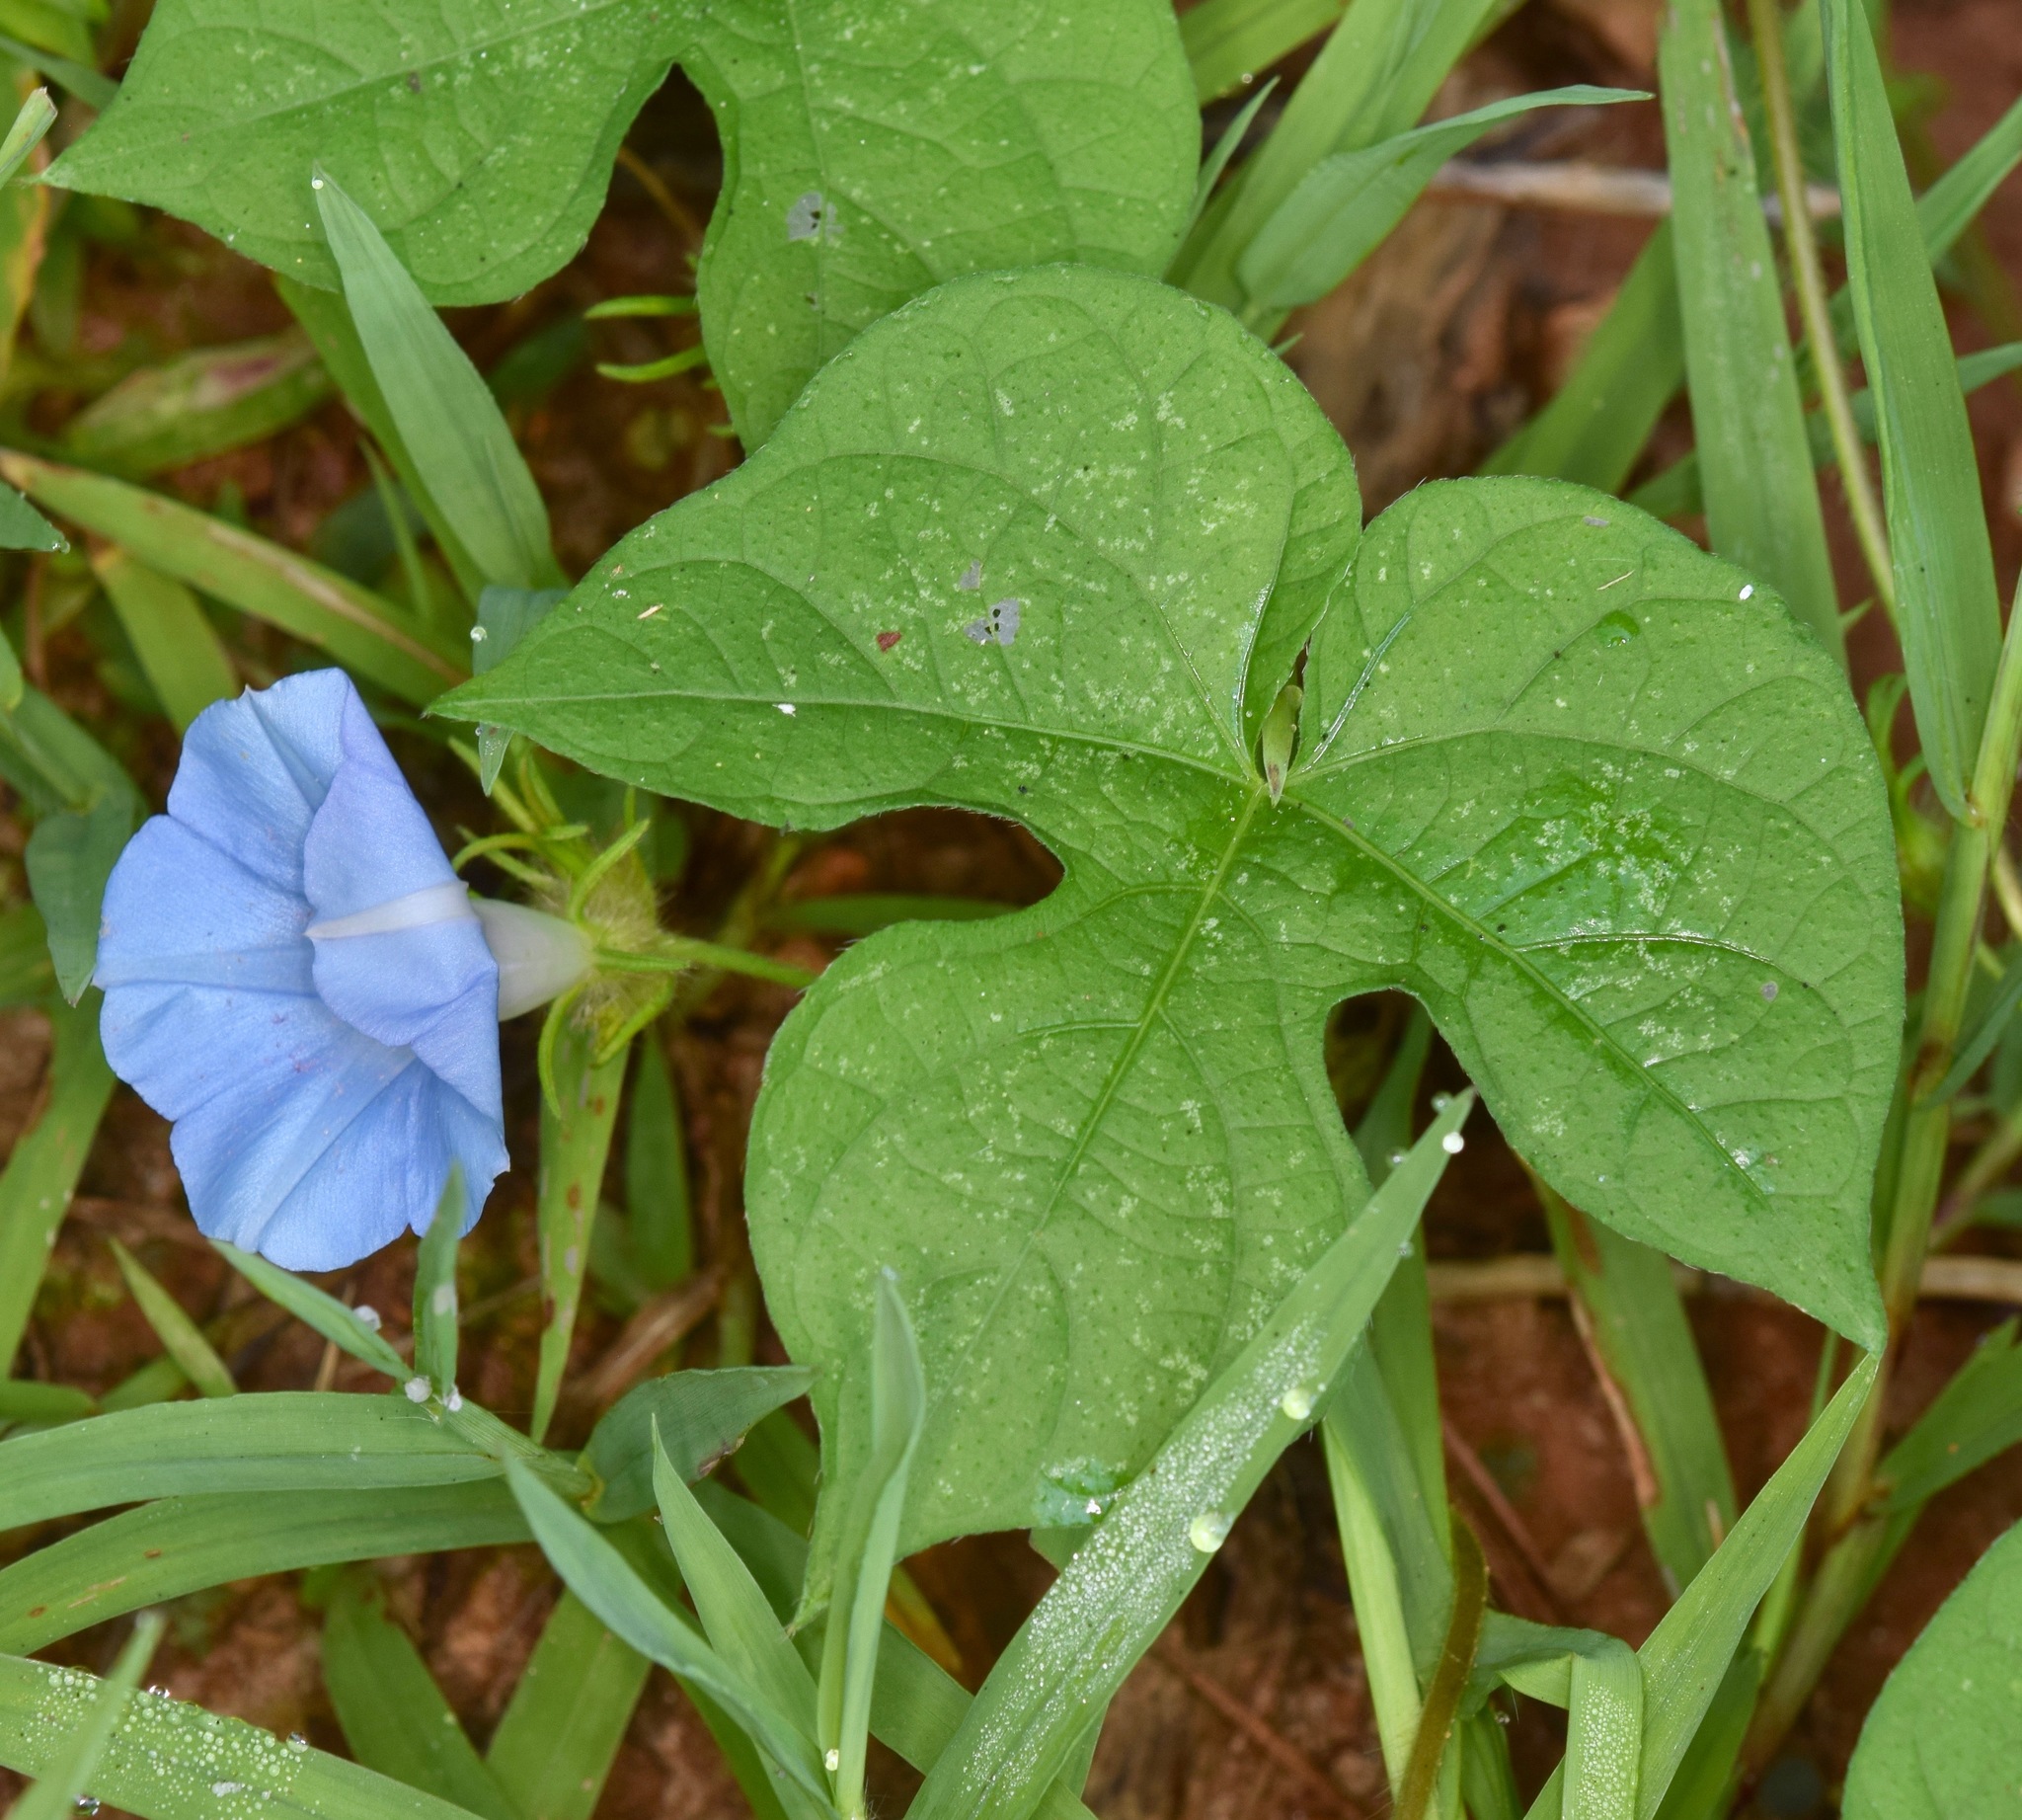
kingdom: Plantae
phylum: Tracheophyta
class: Magnoliopsida
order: Solanales
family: Convolvulaceae
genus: Ipomoea
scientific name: Ipomoea hederacea
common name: Ivy-leaved morning-glory
